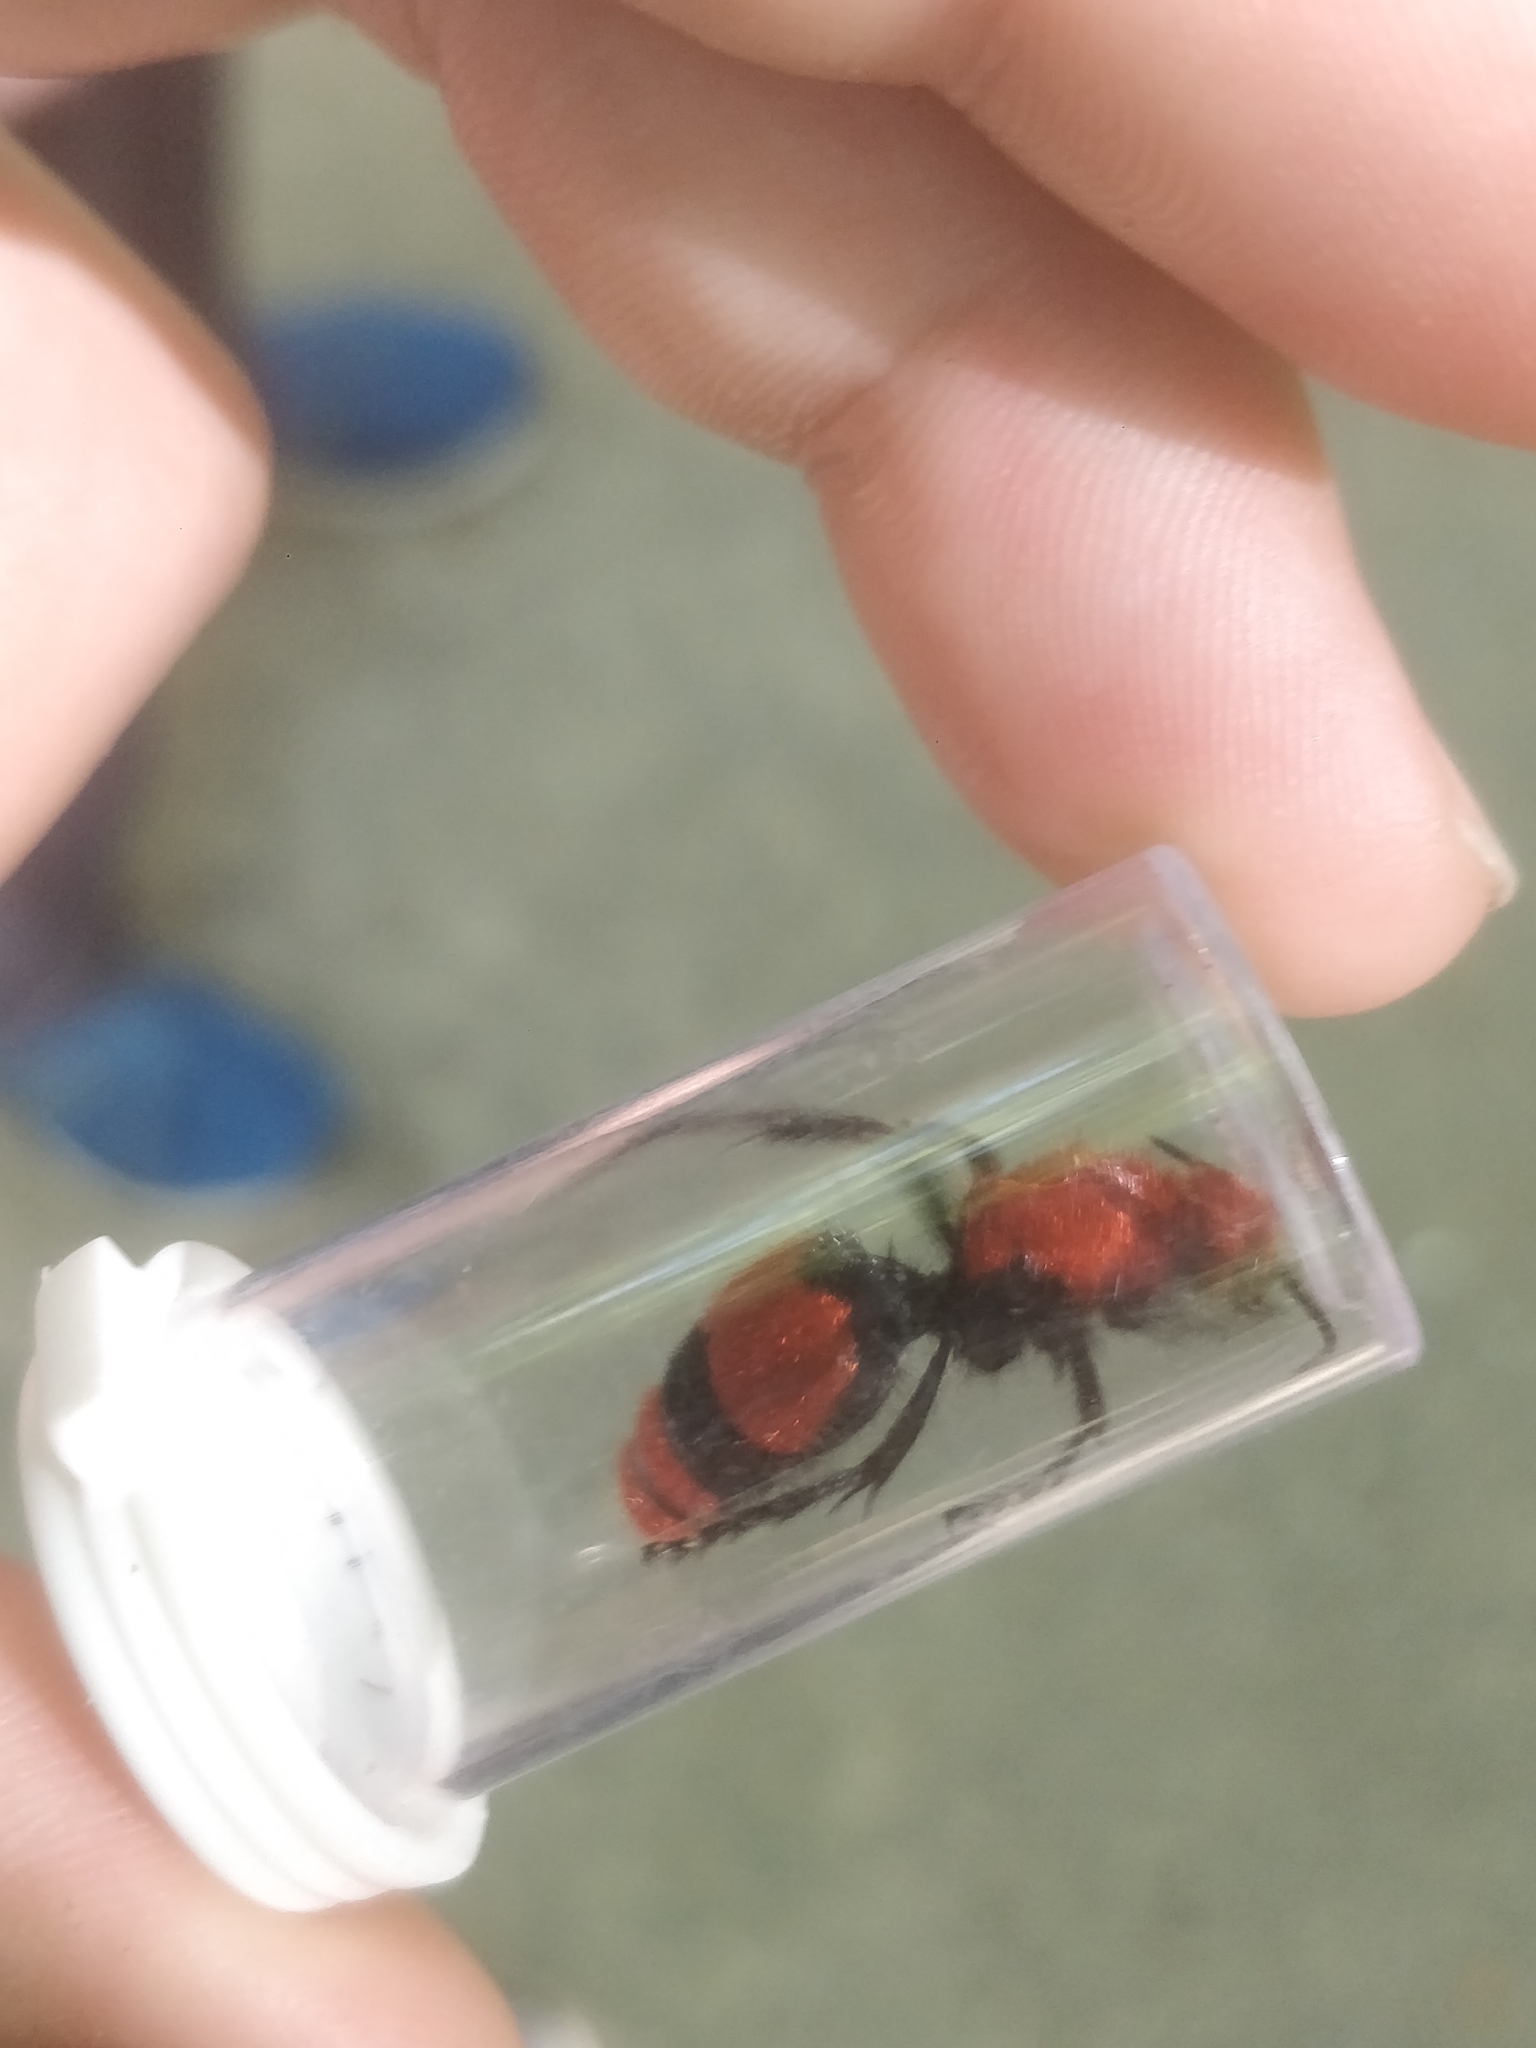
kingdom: Animalia
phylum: Arthropoda
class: Insecta
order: Hymenoptera
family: Mutillidae
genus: Dasymutilla
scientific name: Dasymutilla occidentalis
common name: Common eastern velvet ant
